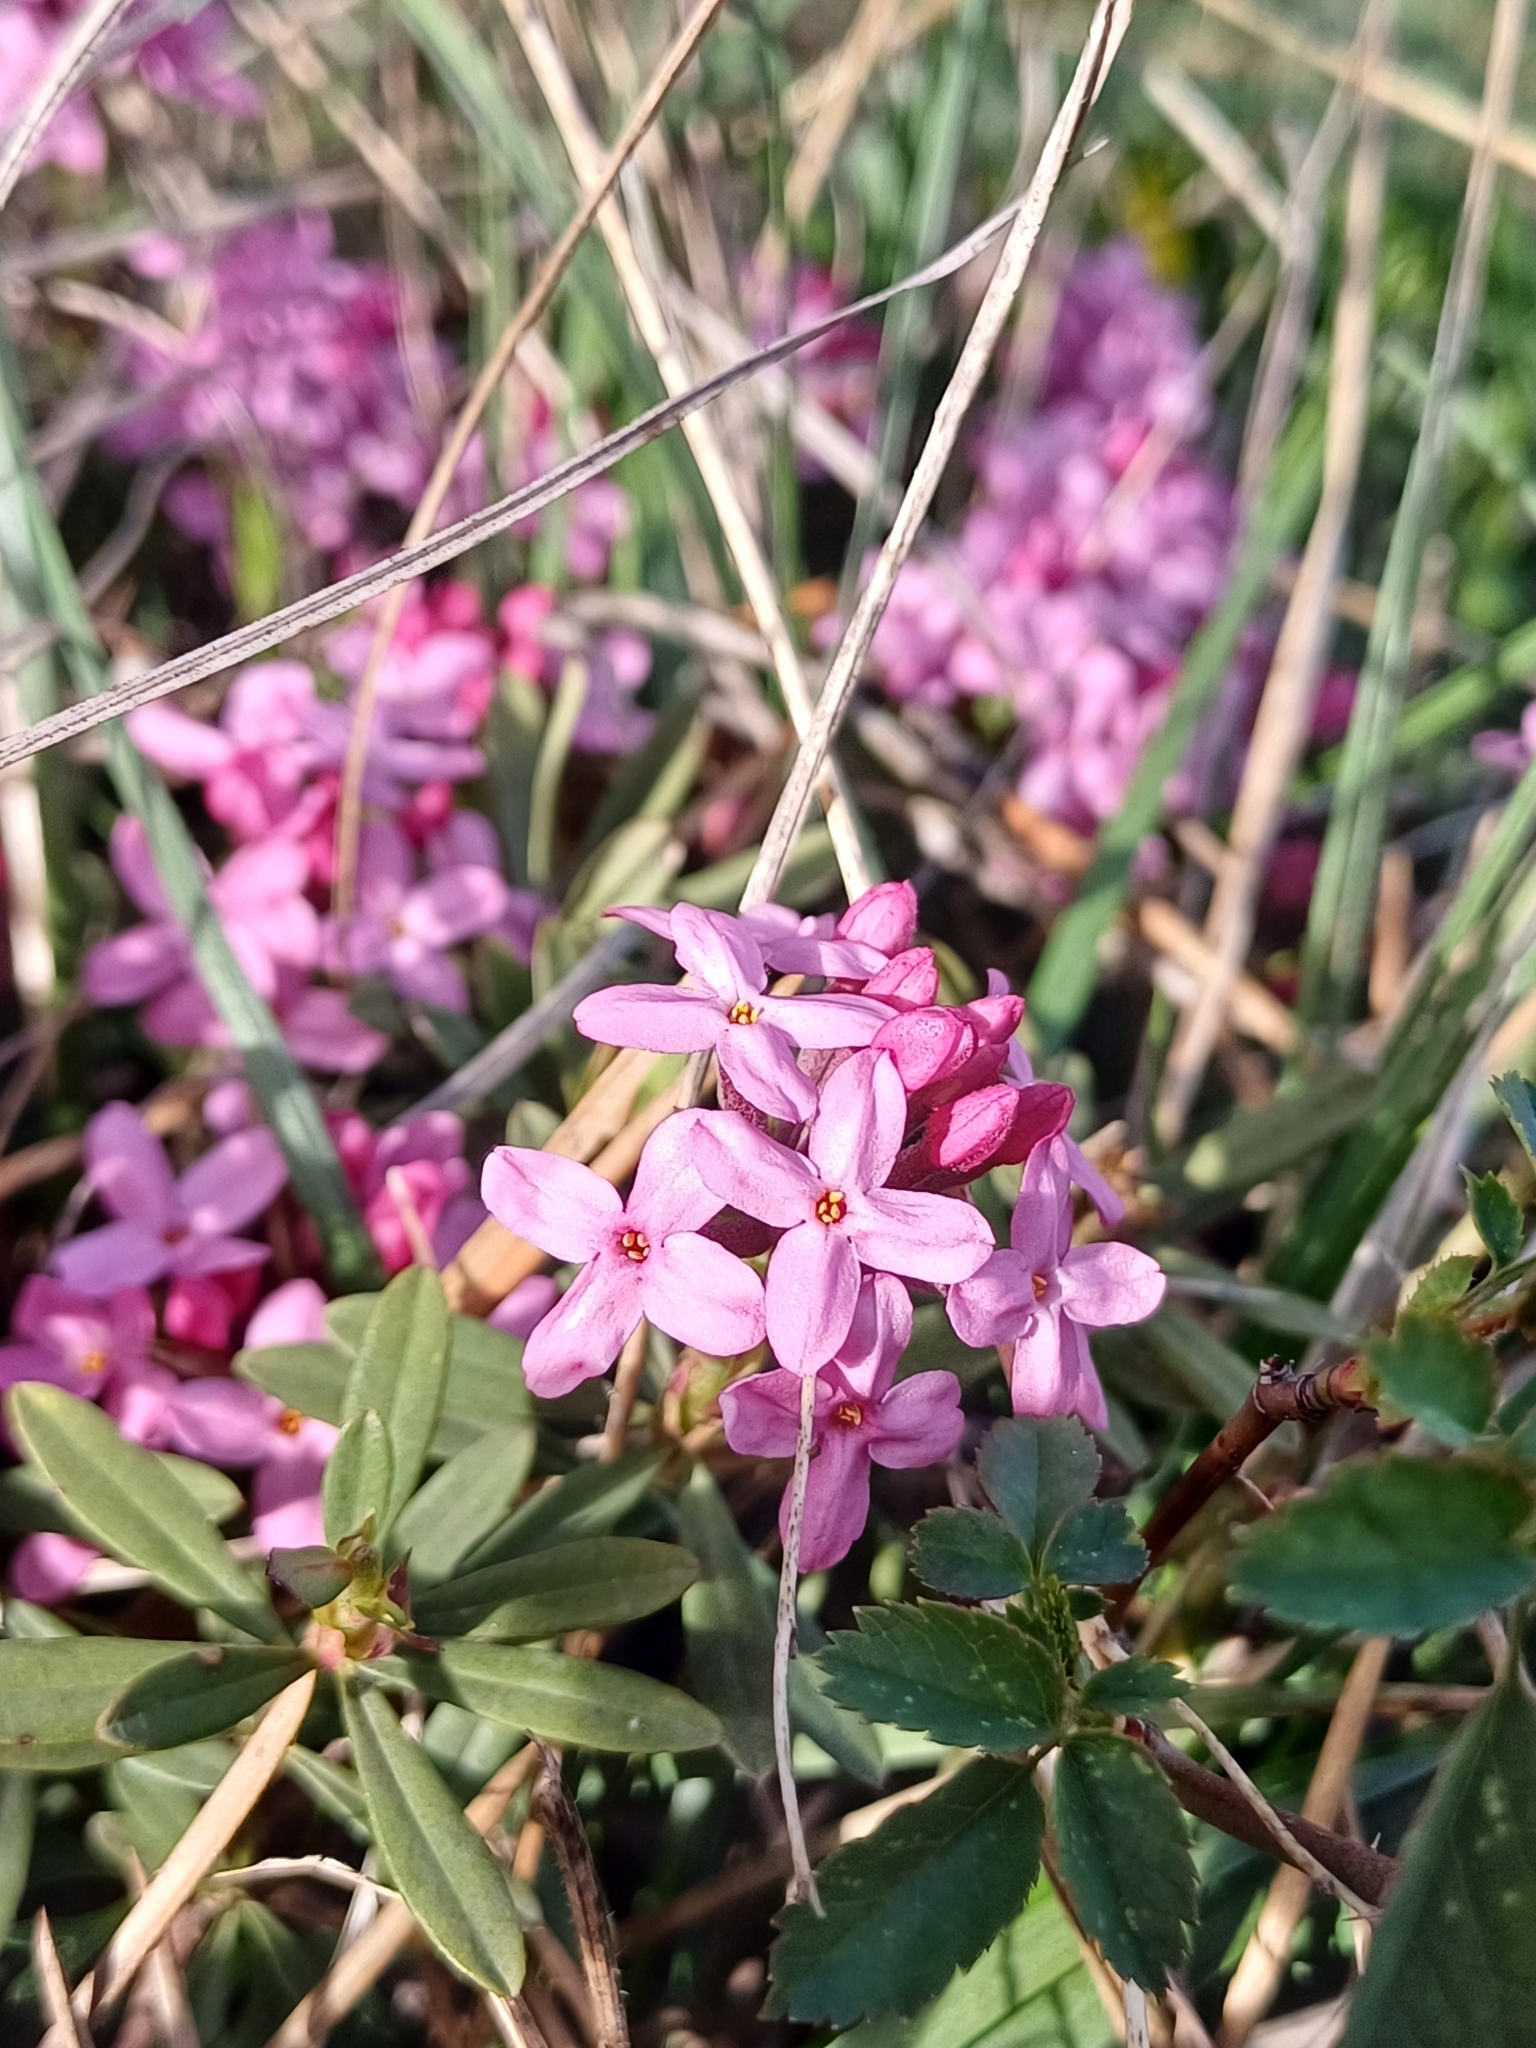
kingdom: Plantae
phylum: Tracheophyta
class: Magnoliopsida
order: Malvales
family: Thymelaeaceae
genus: Daphne
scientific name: Daphne cneorum
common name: Garland-flower
